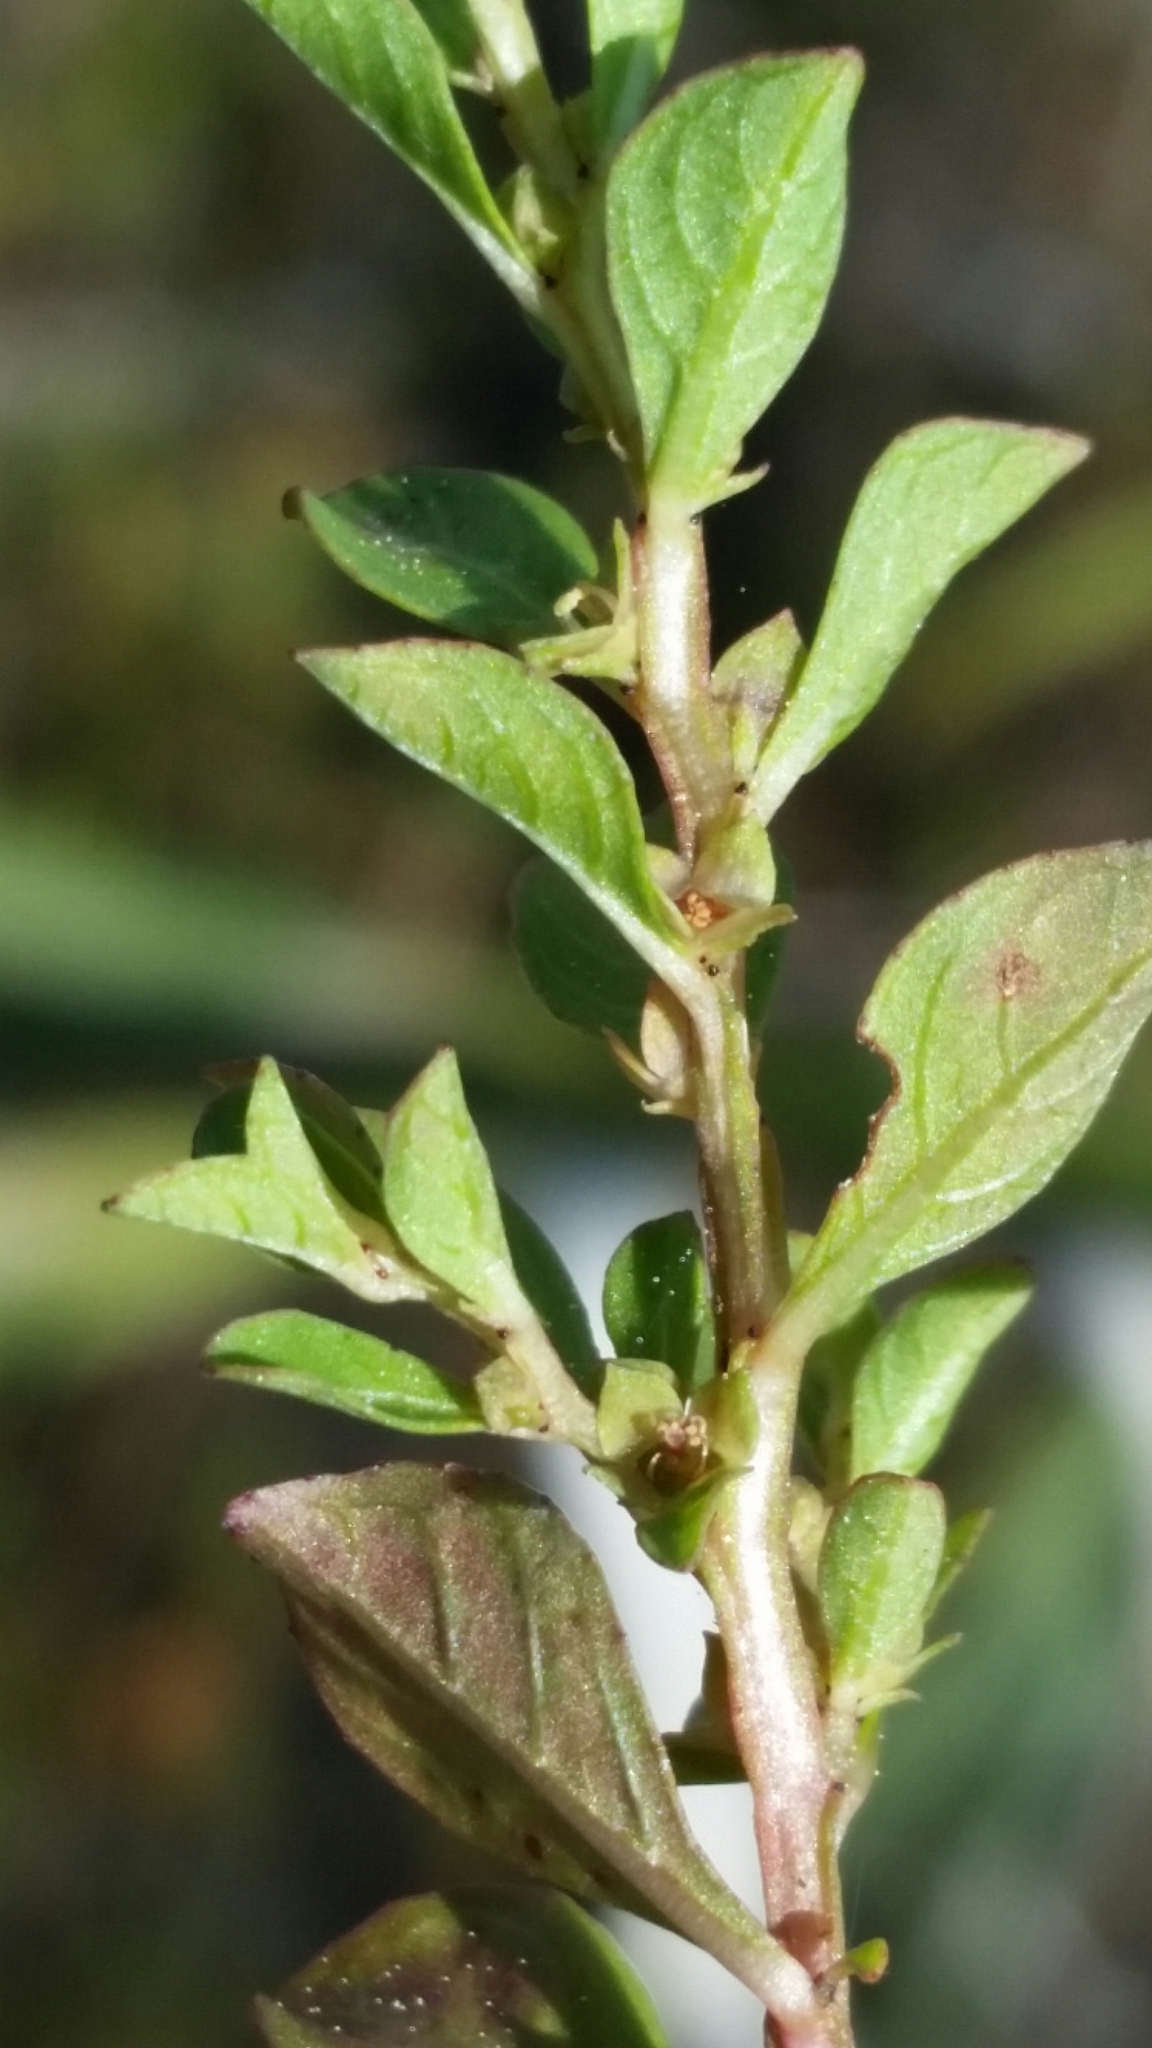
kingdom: Plantae
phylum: Tracheophyta
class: Magnoliopsida
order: Myrtales
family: Onagraceae
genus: Ludwigia
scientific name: Ludwigia microcarpa
